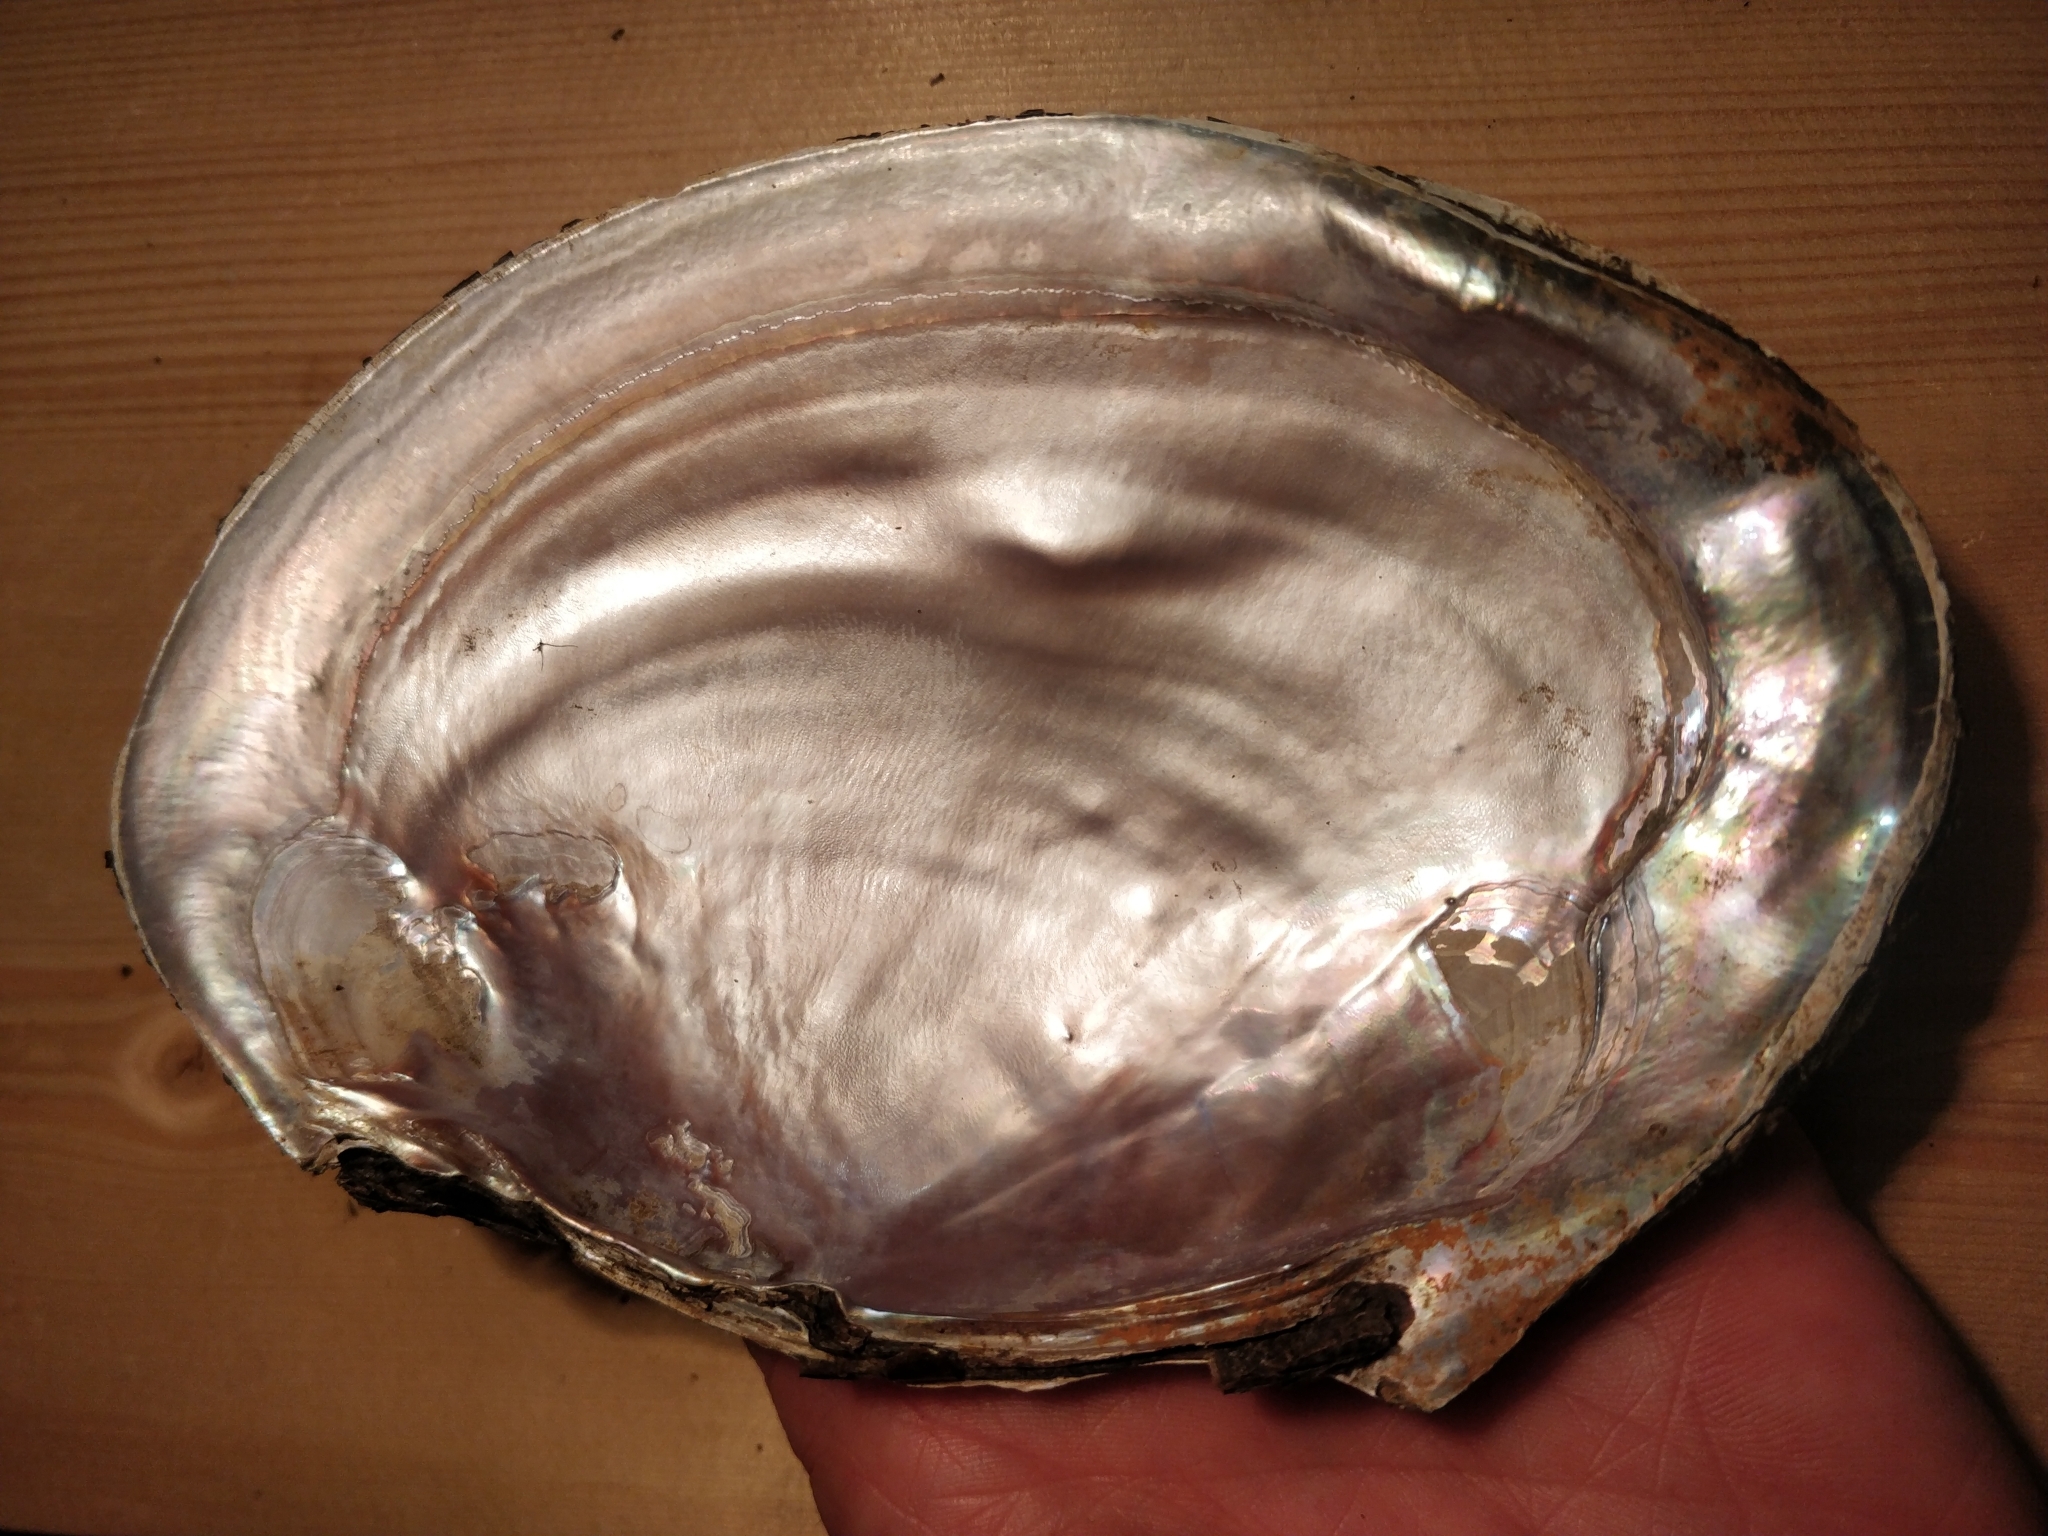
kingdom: Animalia
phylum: Mollusca
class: Bivalvia
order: Unionida
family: Unionidae
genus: Potamilus
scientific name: Potamilus ohiensis
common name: Pink papershell
